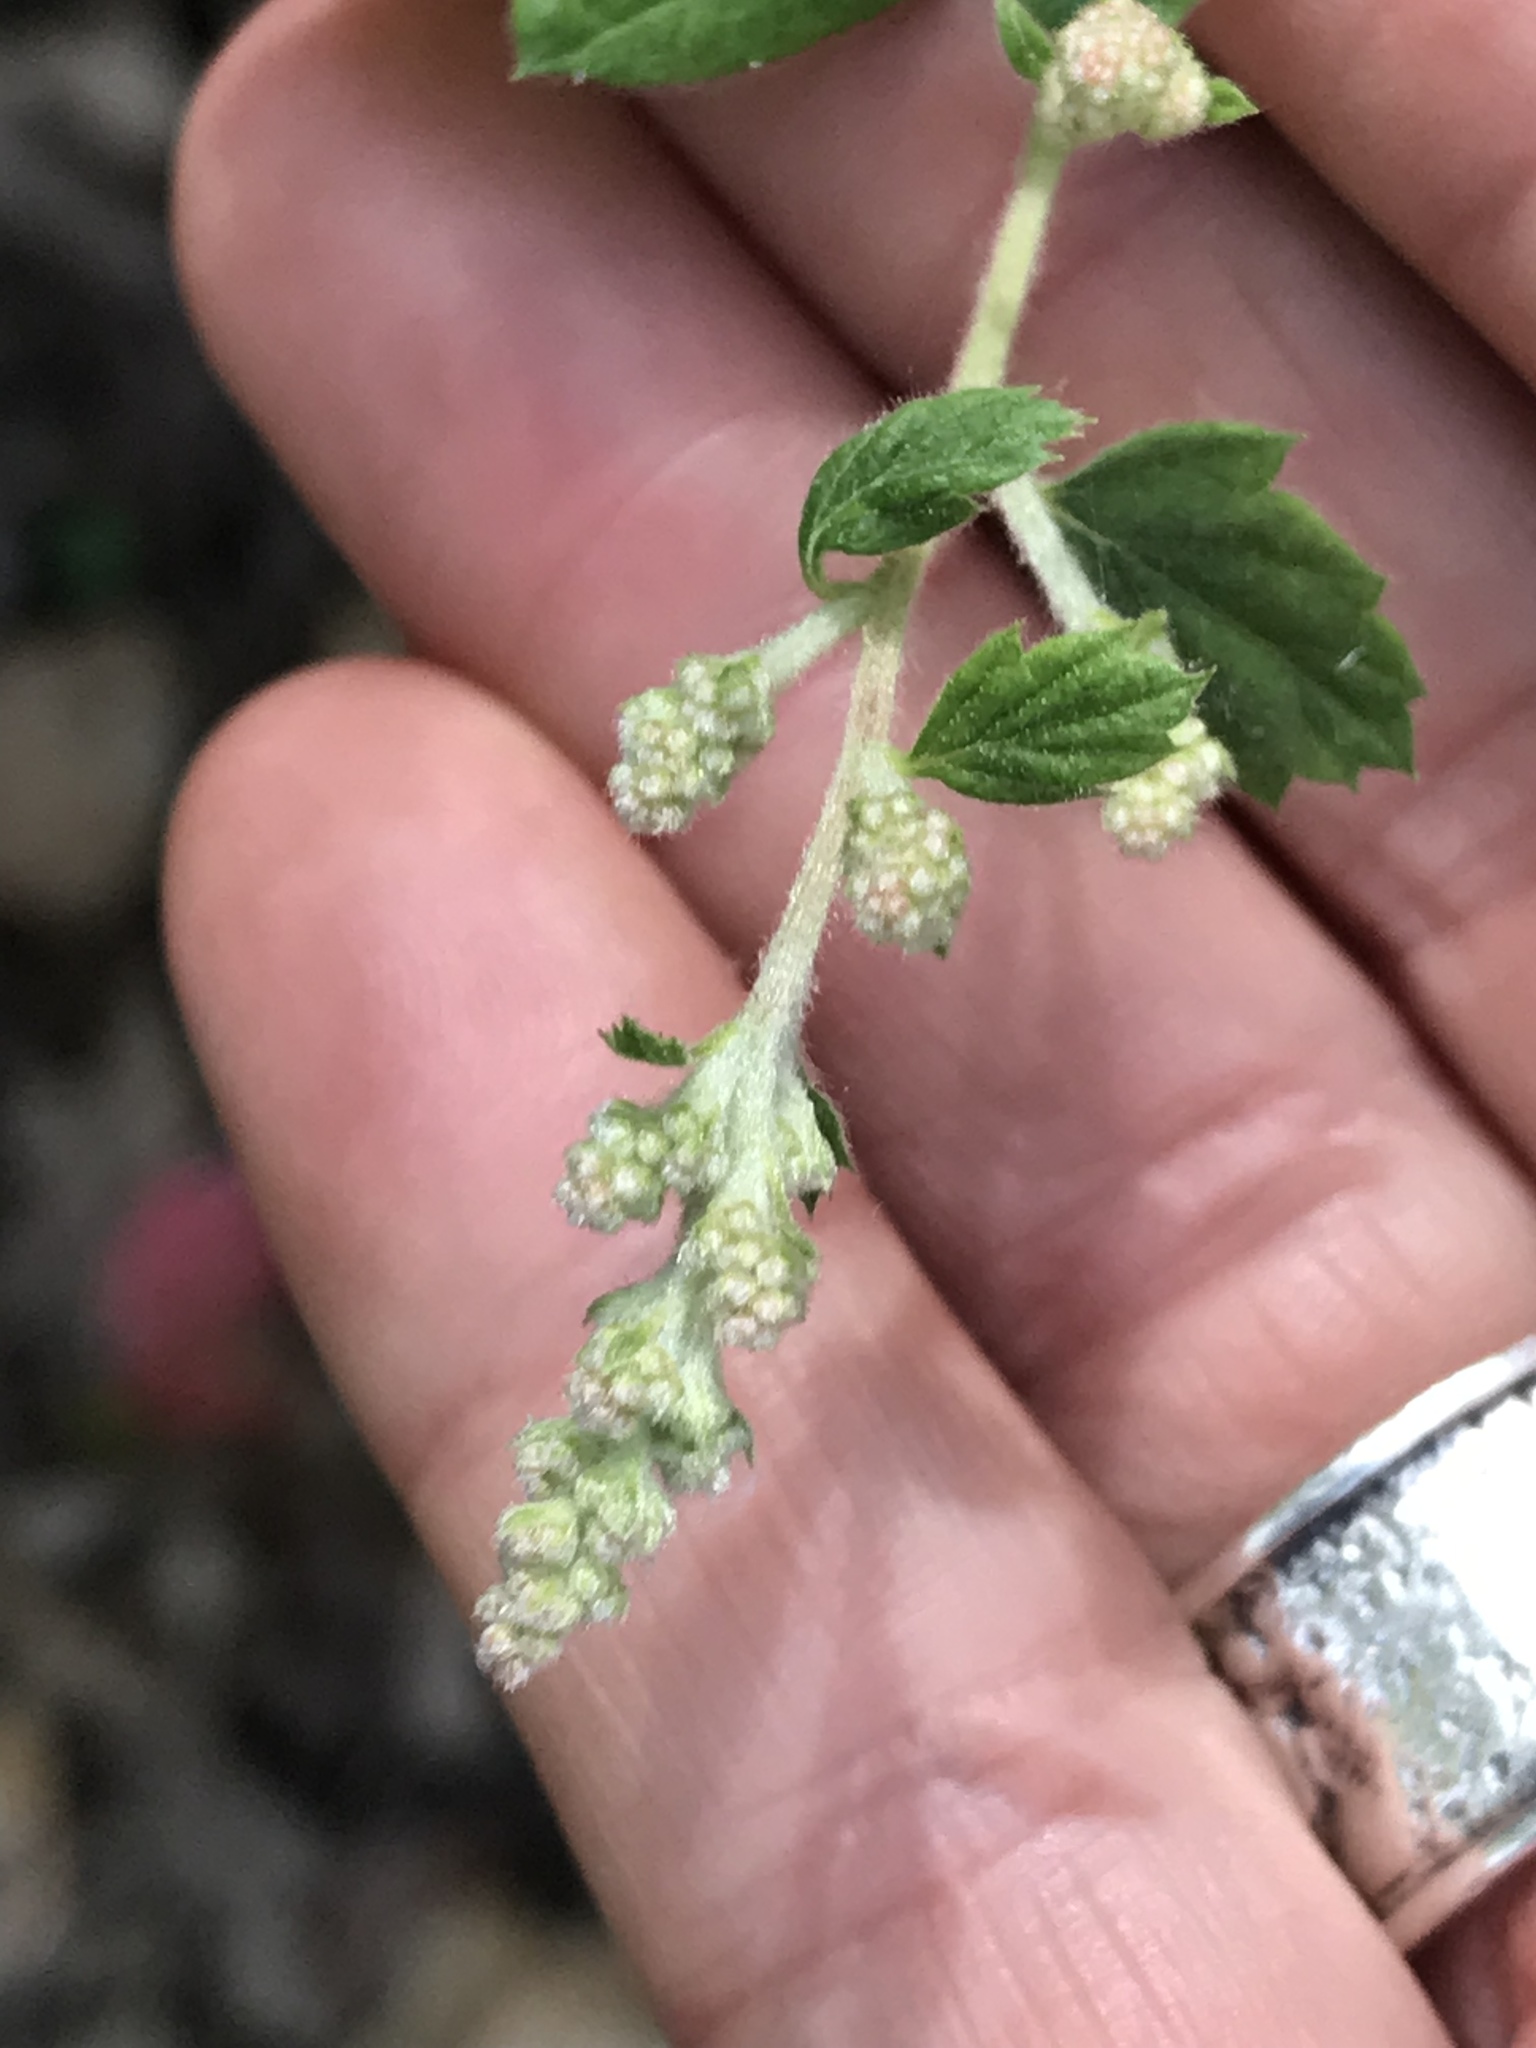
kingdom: Plantae
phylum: Tracheophyta
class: Magnoliopsida
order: Rosales
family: Rosaceae
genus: Holodiscus
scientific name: Holodiscus discolor
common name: Oceanspray
